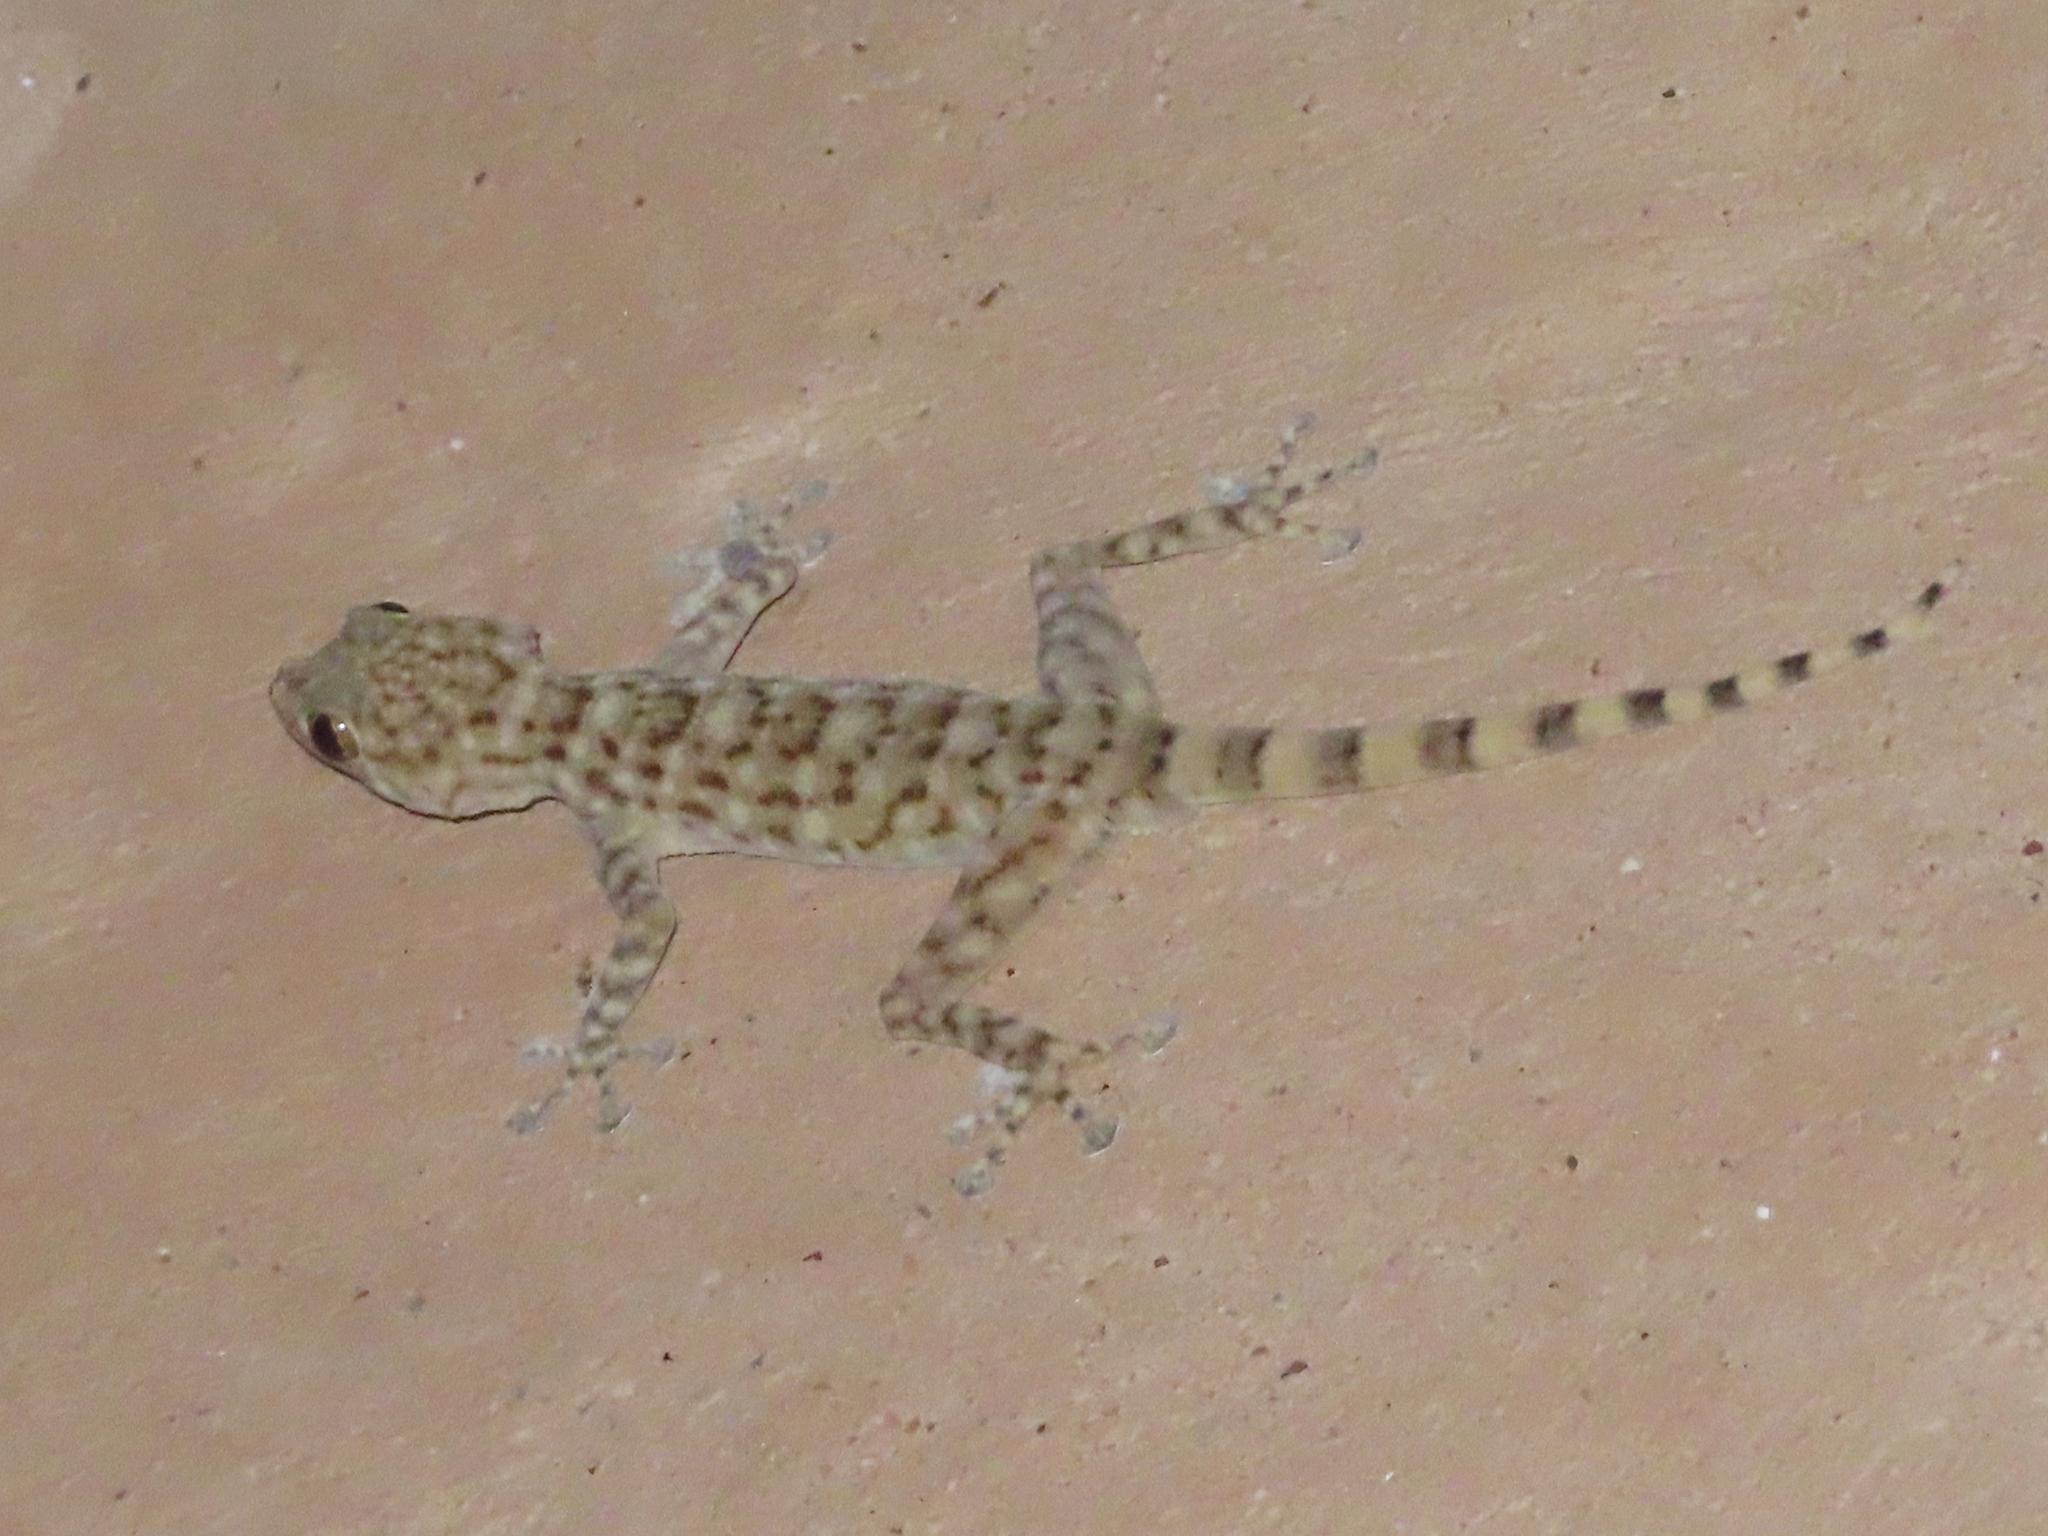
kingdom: Animalia
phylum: Chordata
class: Squamata
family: Phyllodactylidae
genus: Ptyodactylus
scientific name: Ptyodactylus orlovi
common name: Orlov's fan-footed gecko
